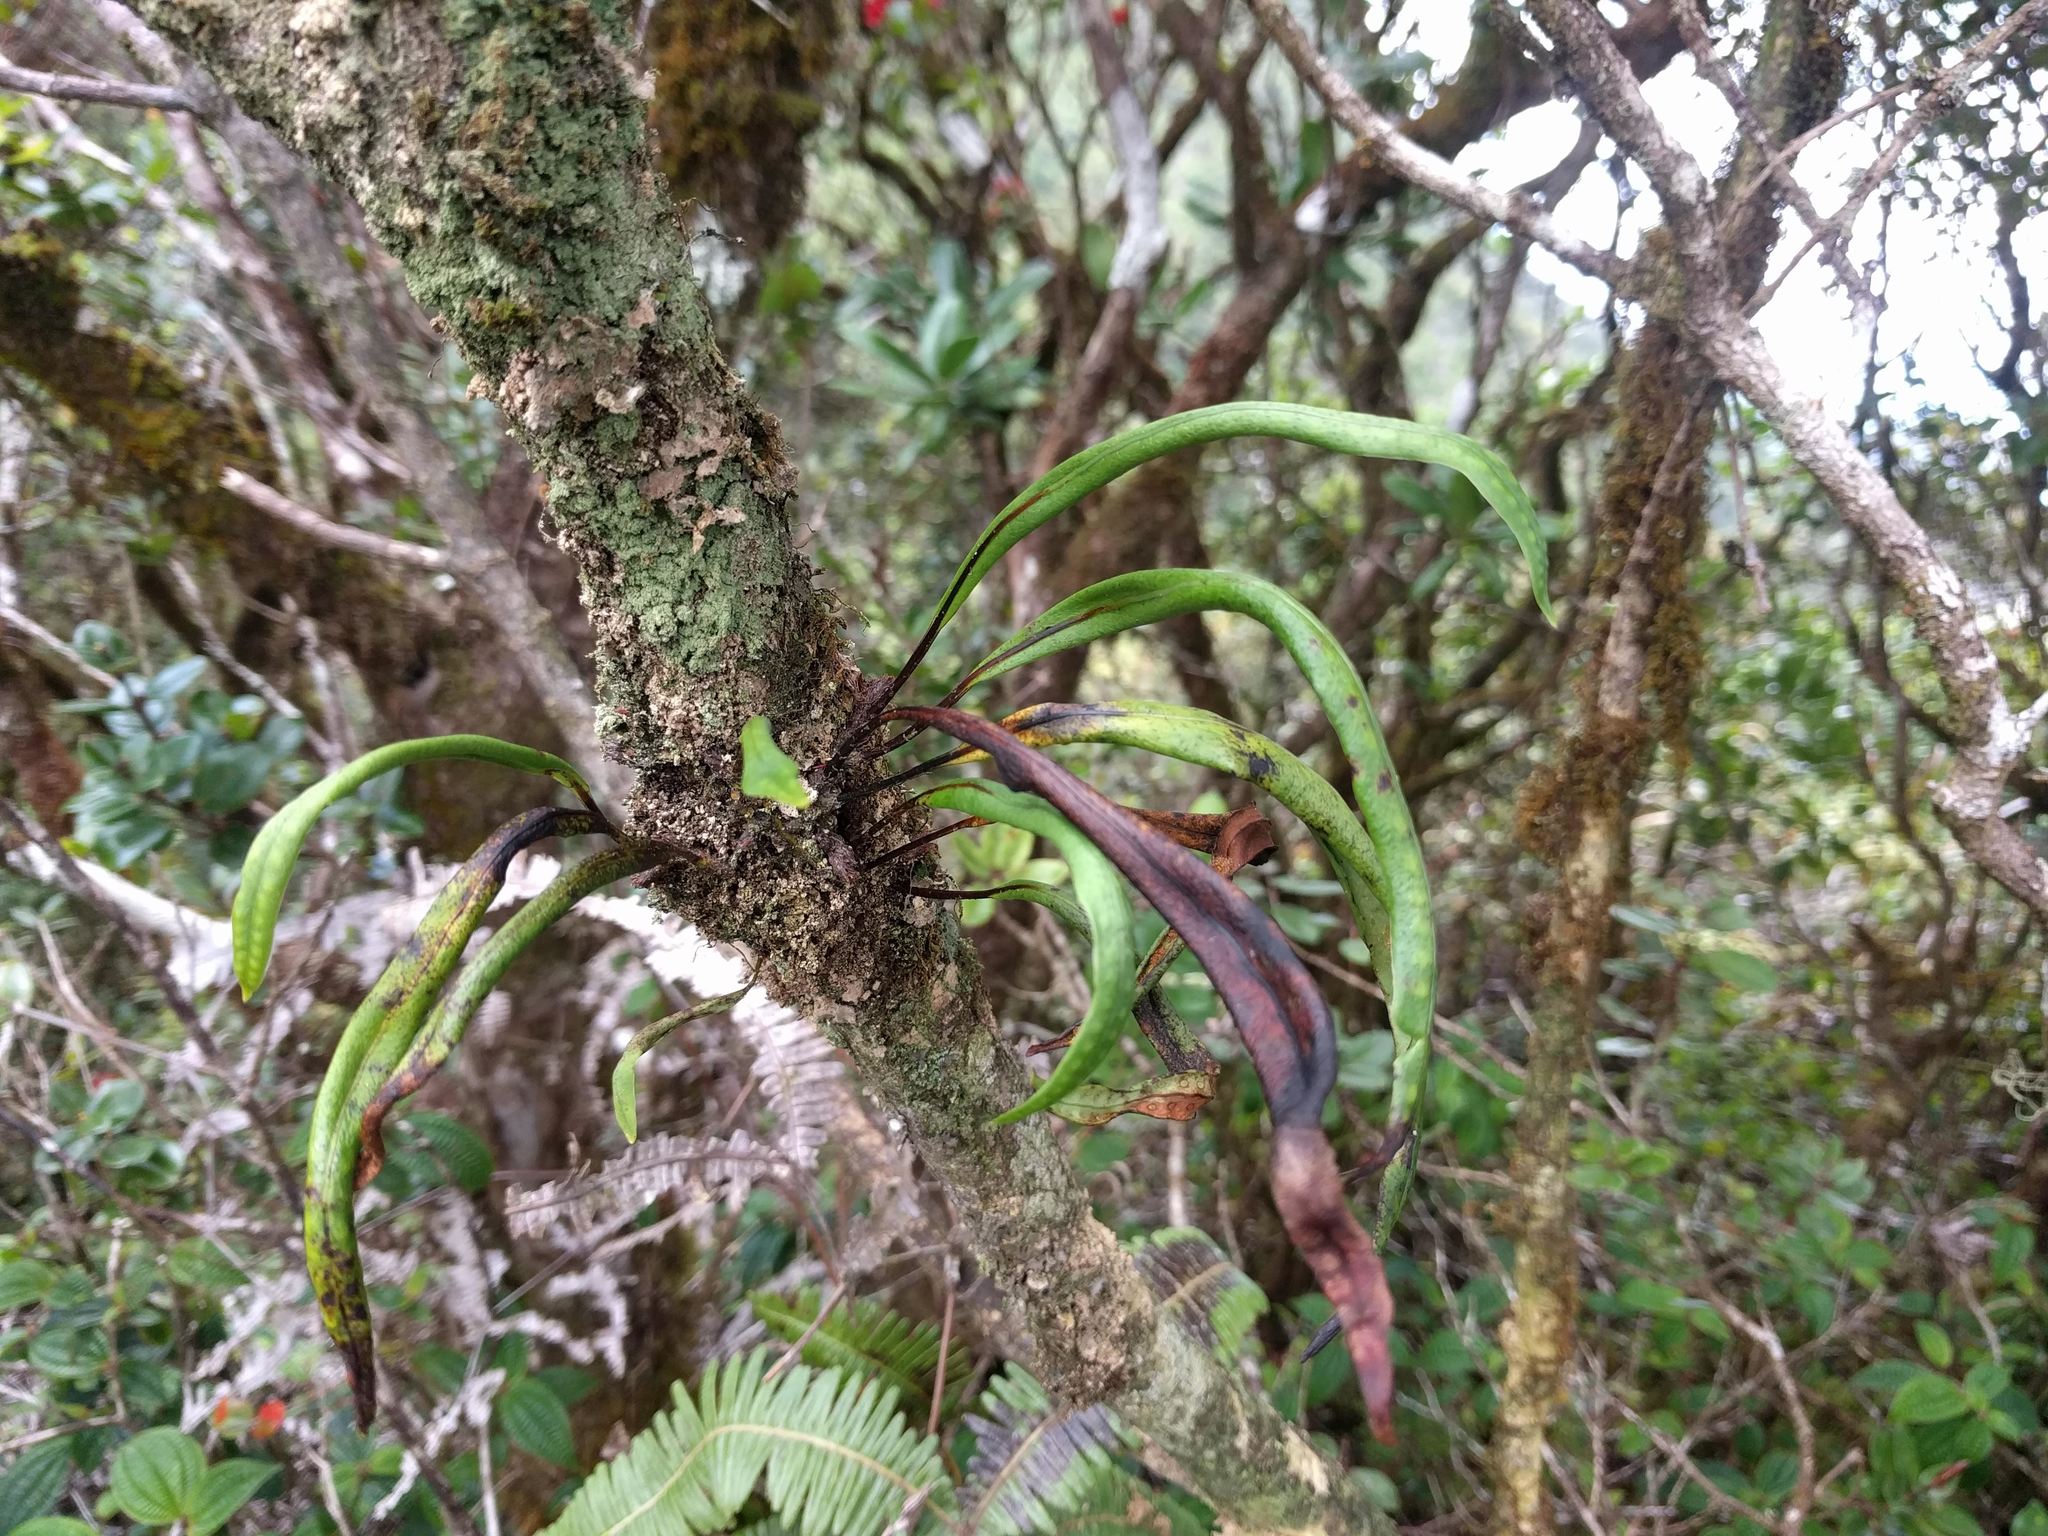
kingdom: Plantae
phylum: Tracheophyta
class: Polypodiopsida
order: Polypodiales
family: Polypodiaceae
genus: Lepisorus
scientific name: Lepisorus thunbergianus
